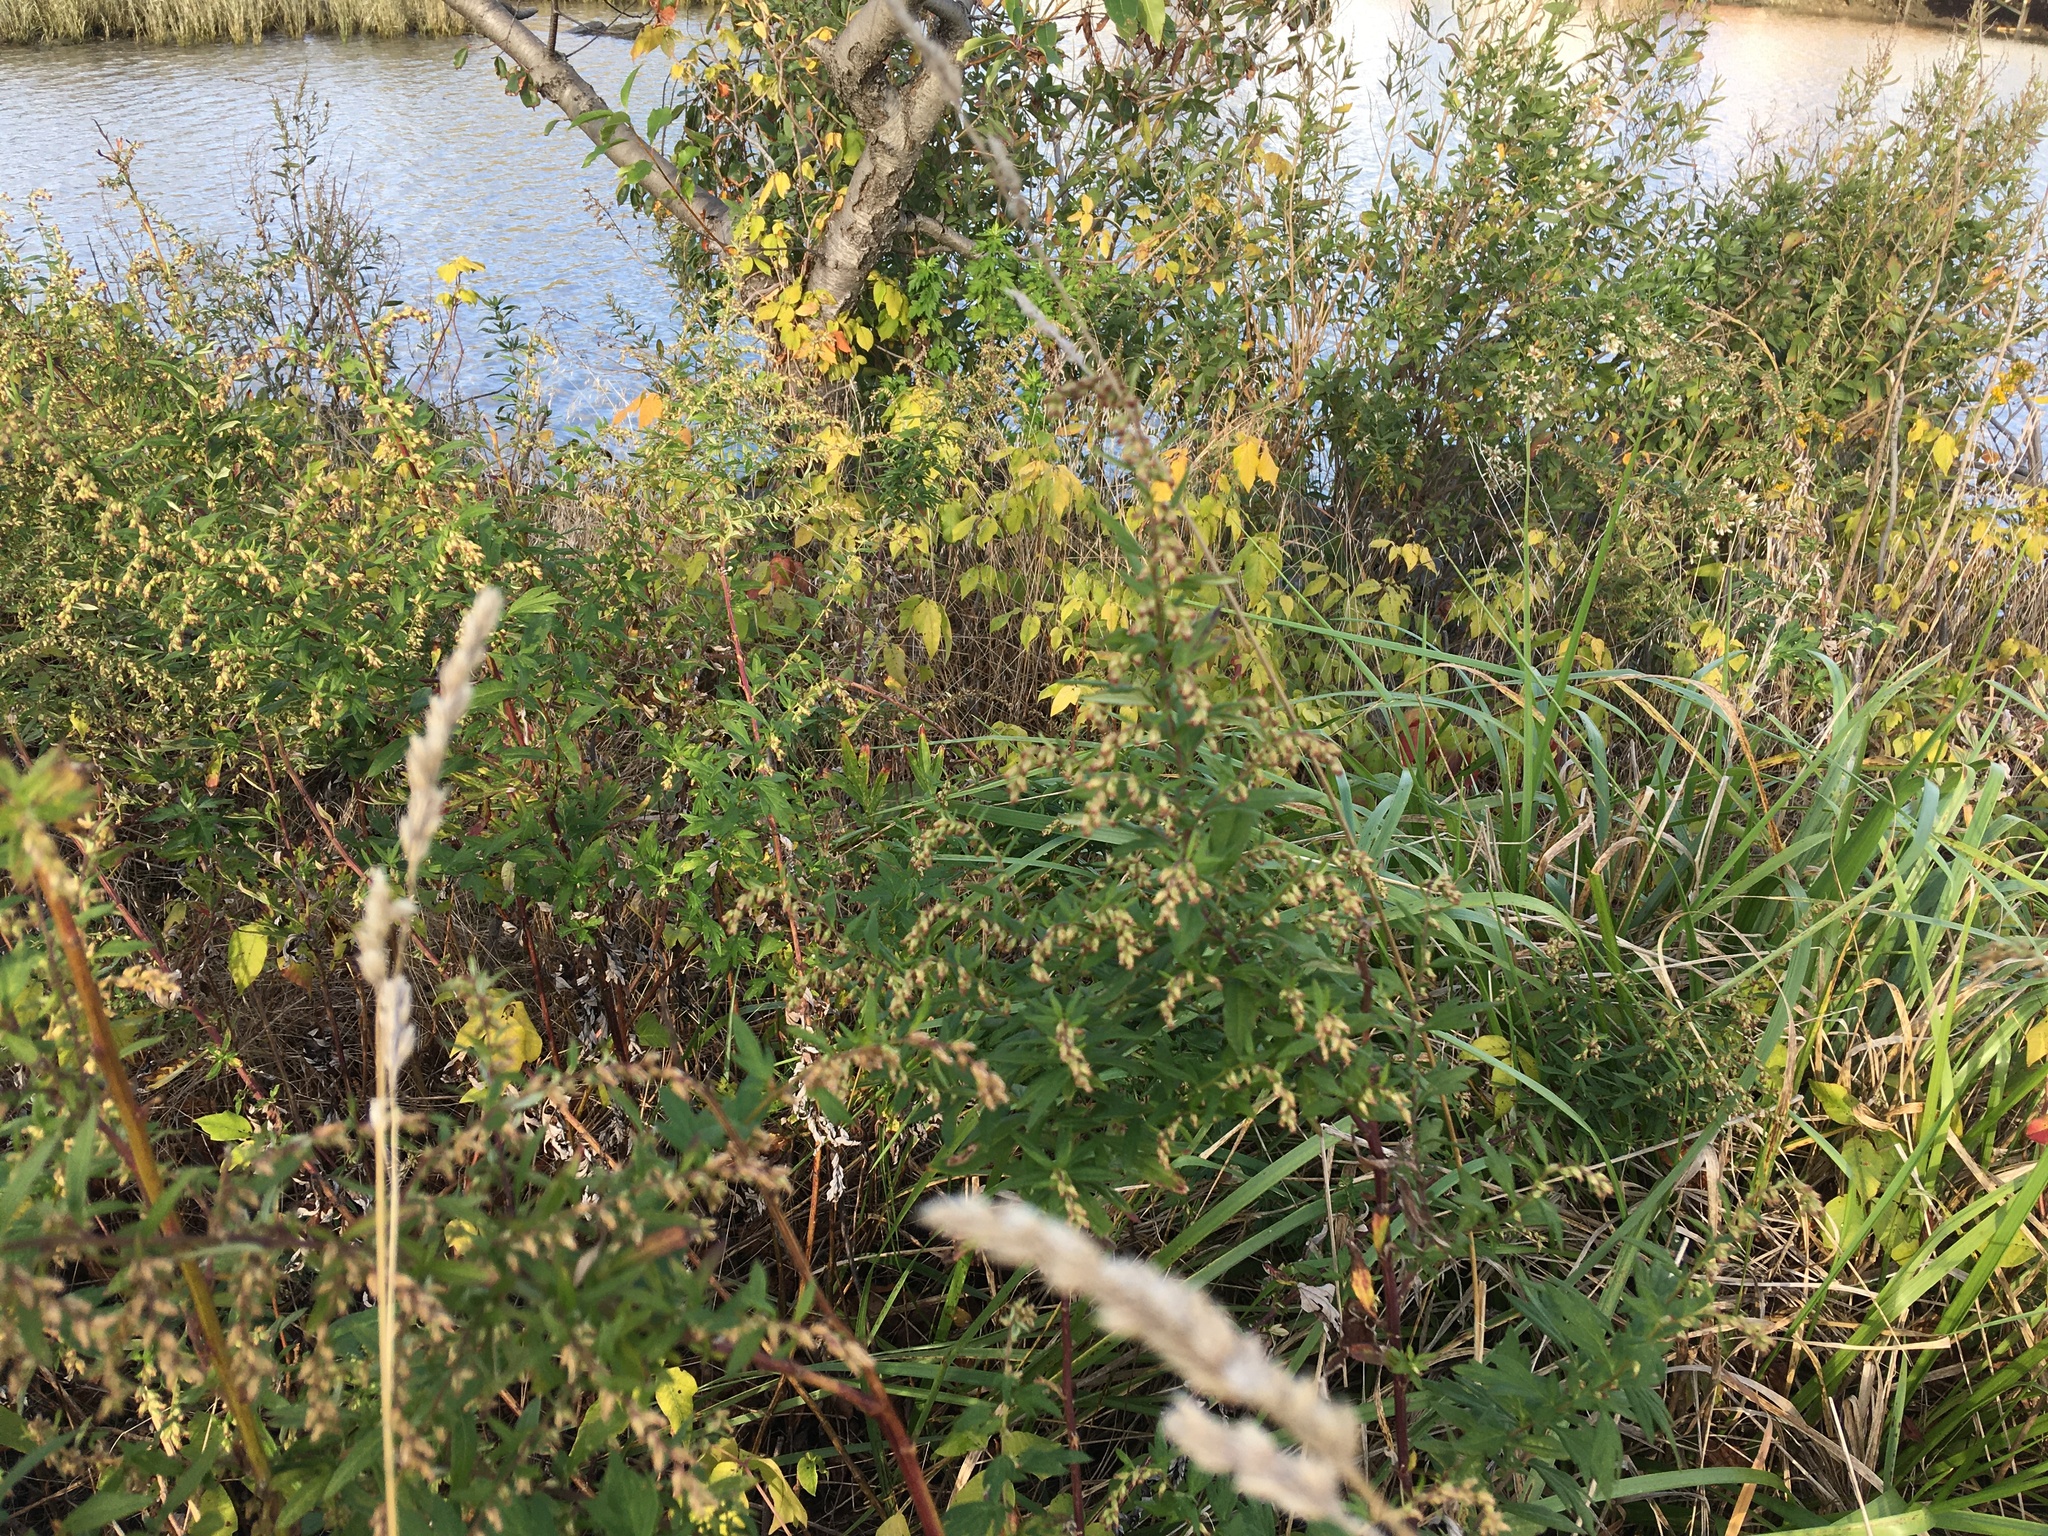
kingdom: Plantae
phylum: Tracheophyta
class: Magnoliopsida
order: Asterales
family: Asteraceae
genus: Artemisia
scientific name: Artemisia vulgaris
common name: Mugwort
